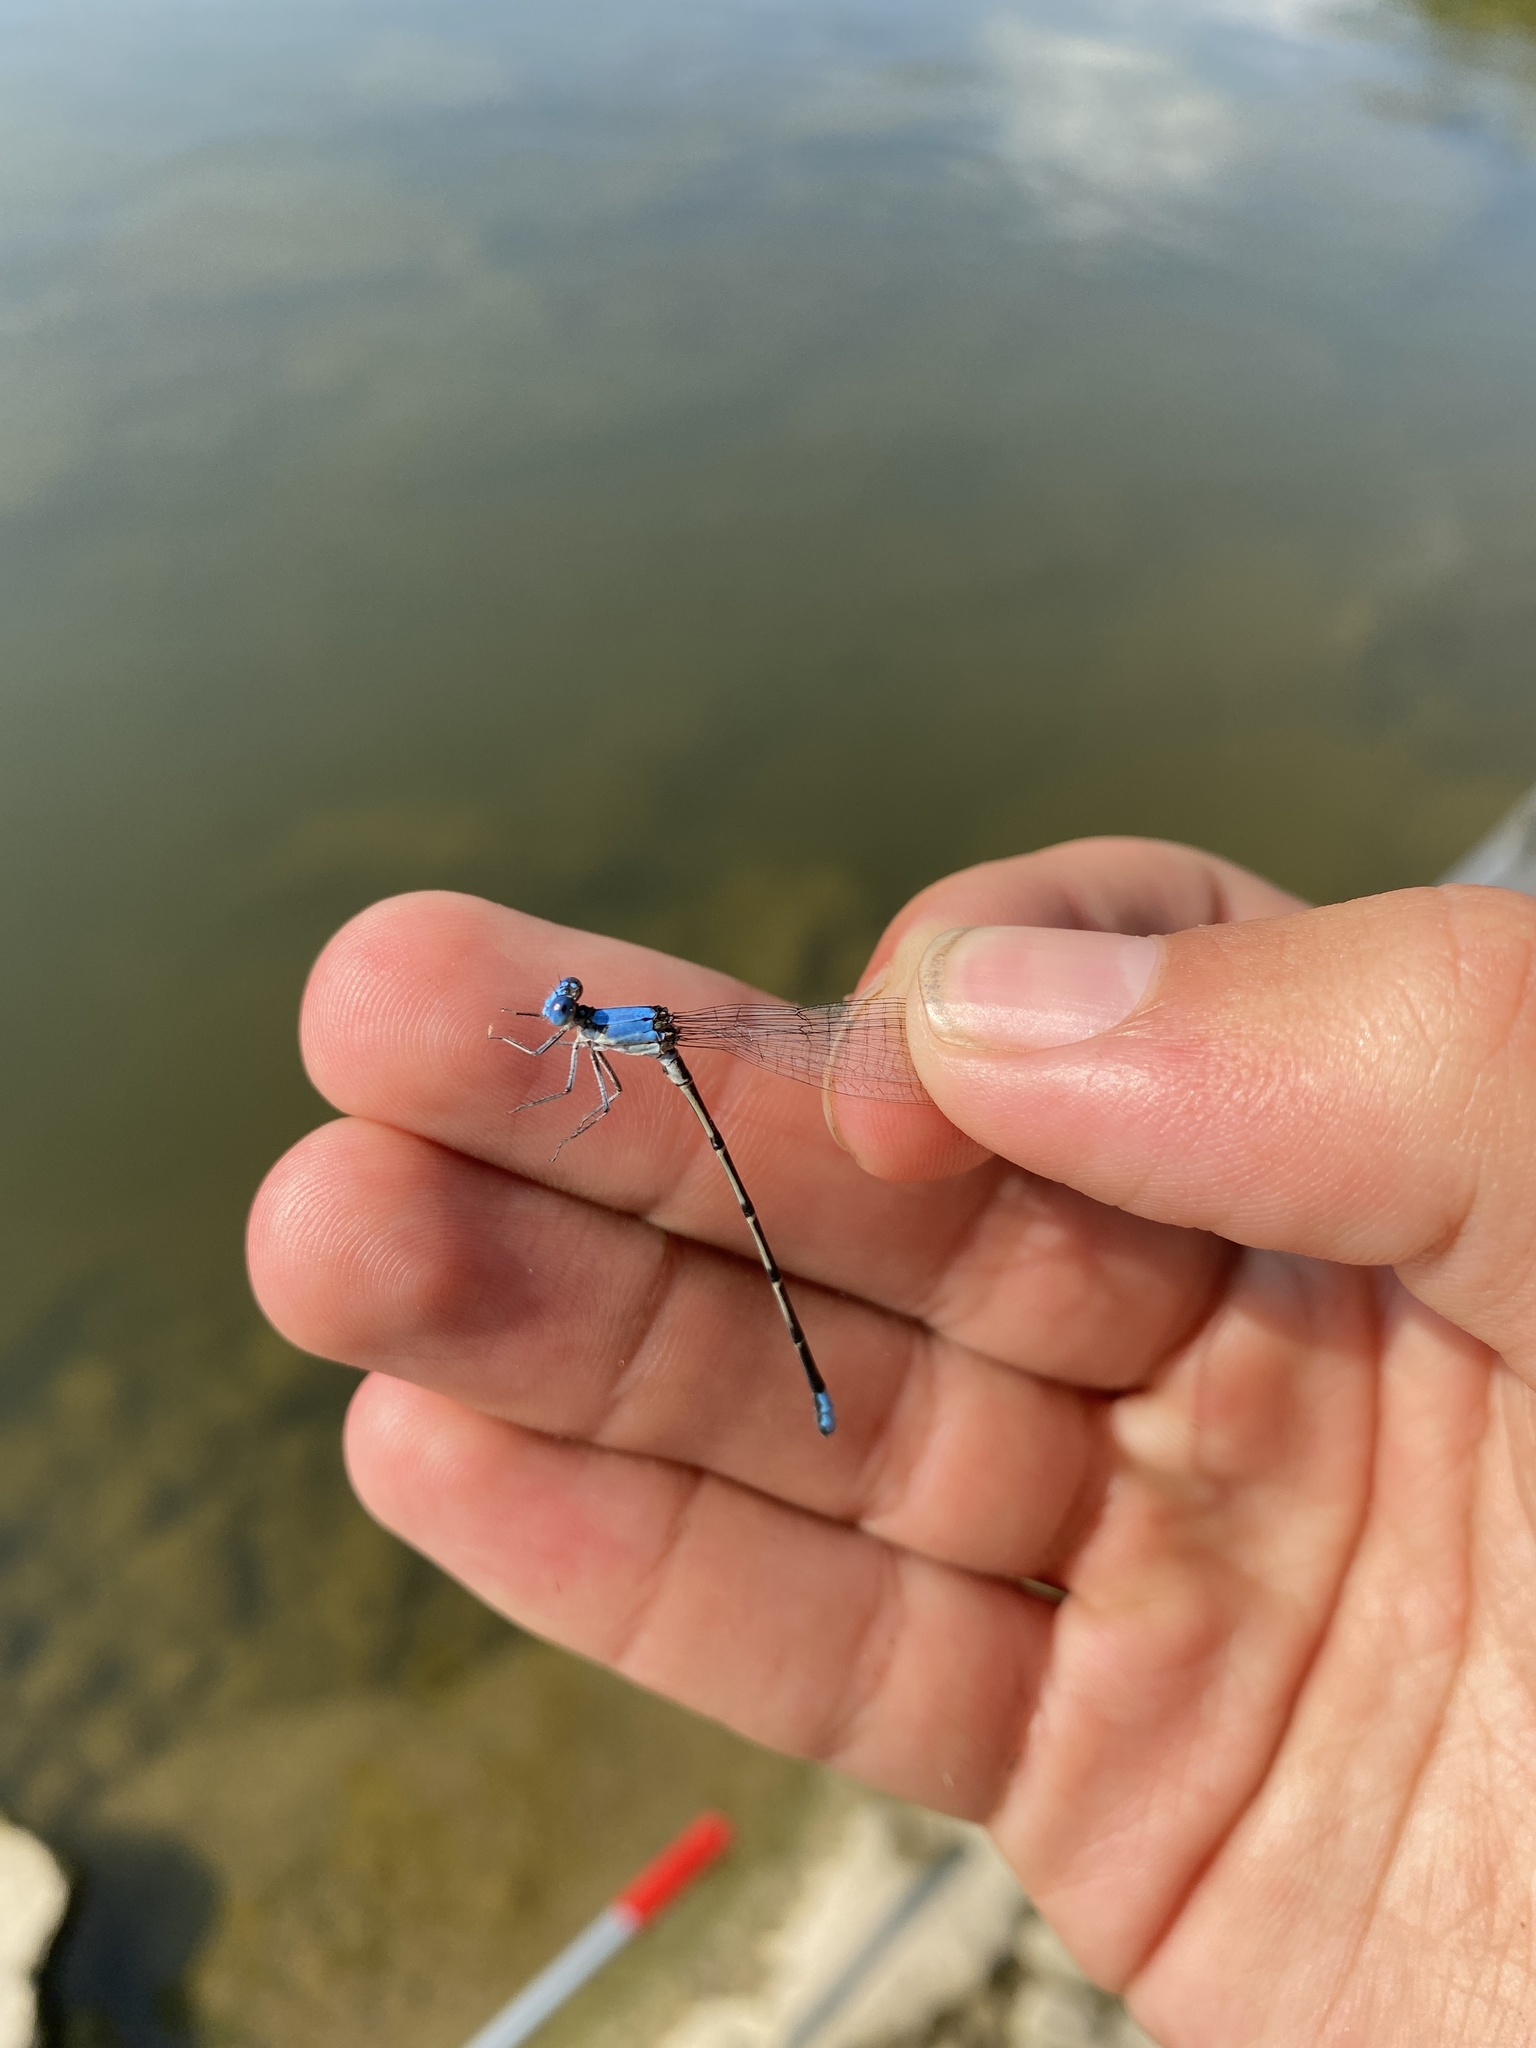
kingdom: Animalia
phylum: Arthropoda
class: Insecta
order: Odonata
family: Coenagrionidae
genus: Argia
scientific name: Argia apicalis
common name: Blue-fronted dancer
